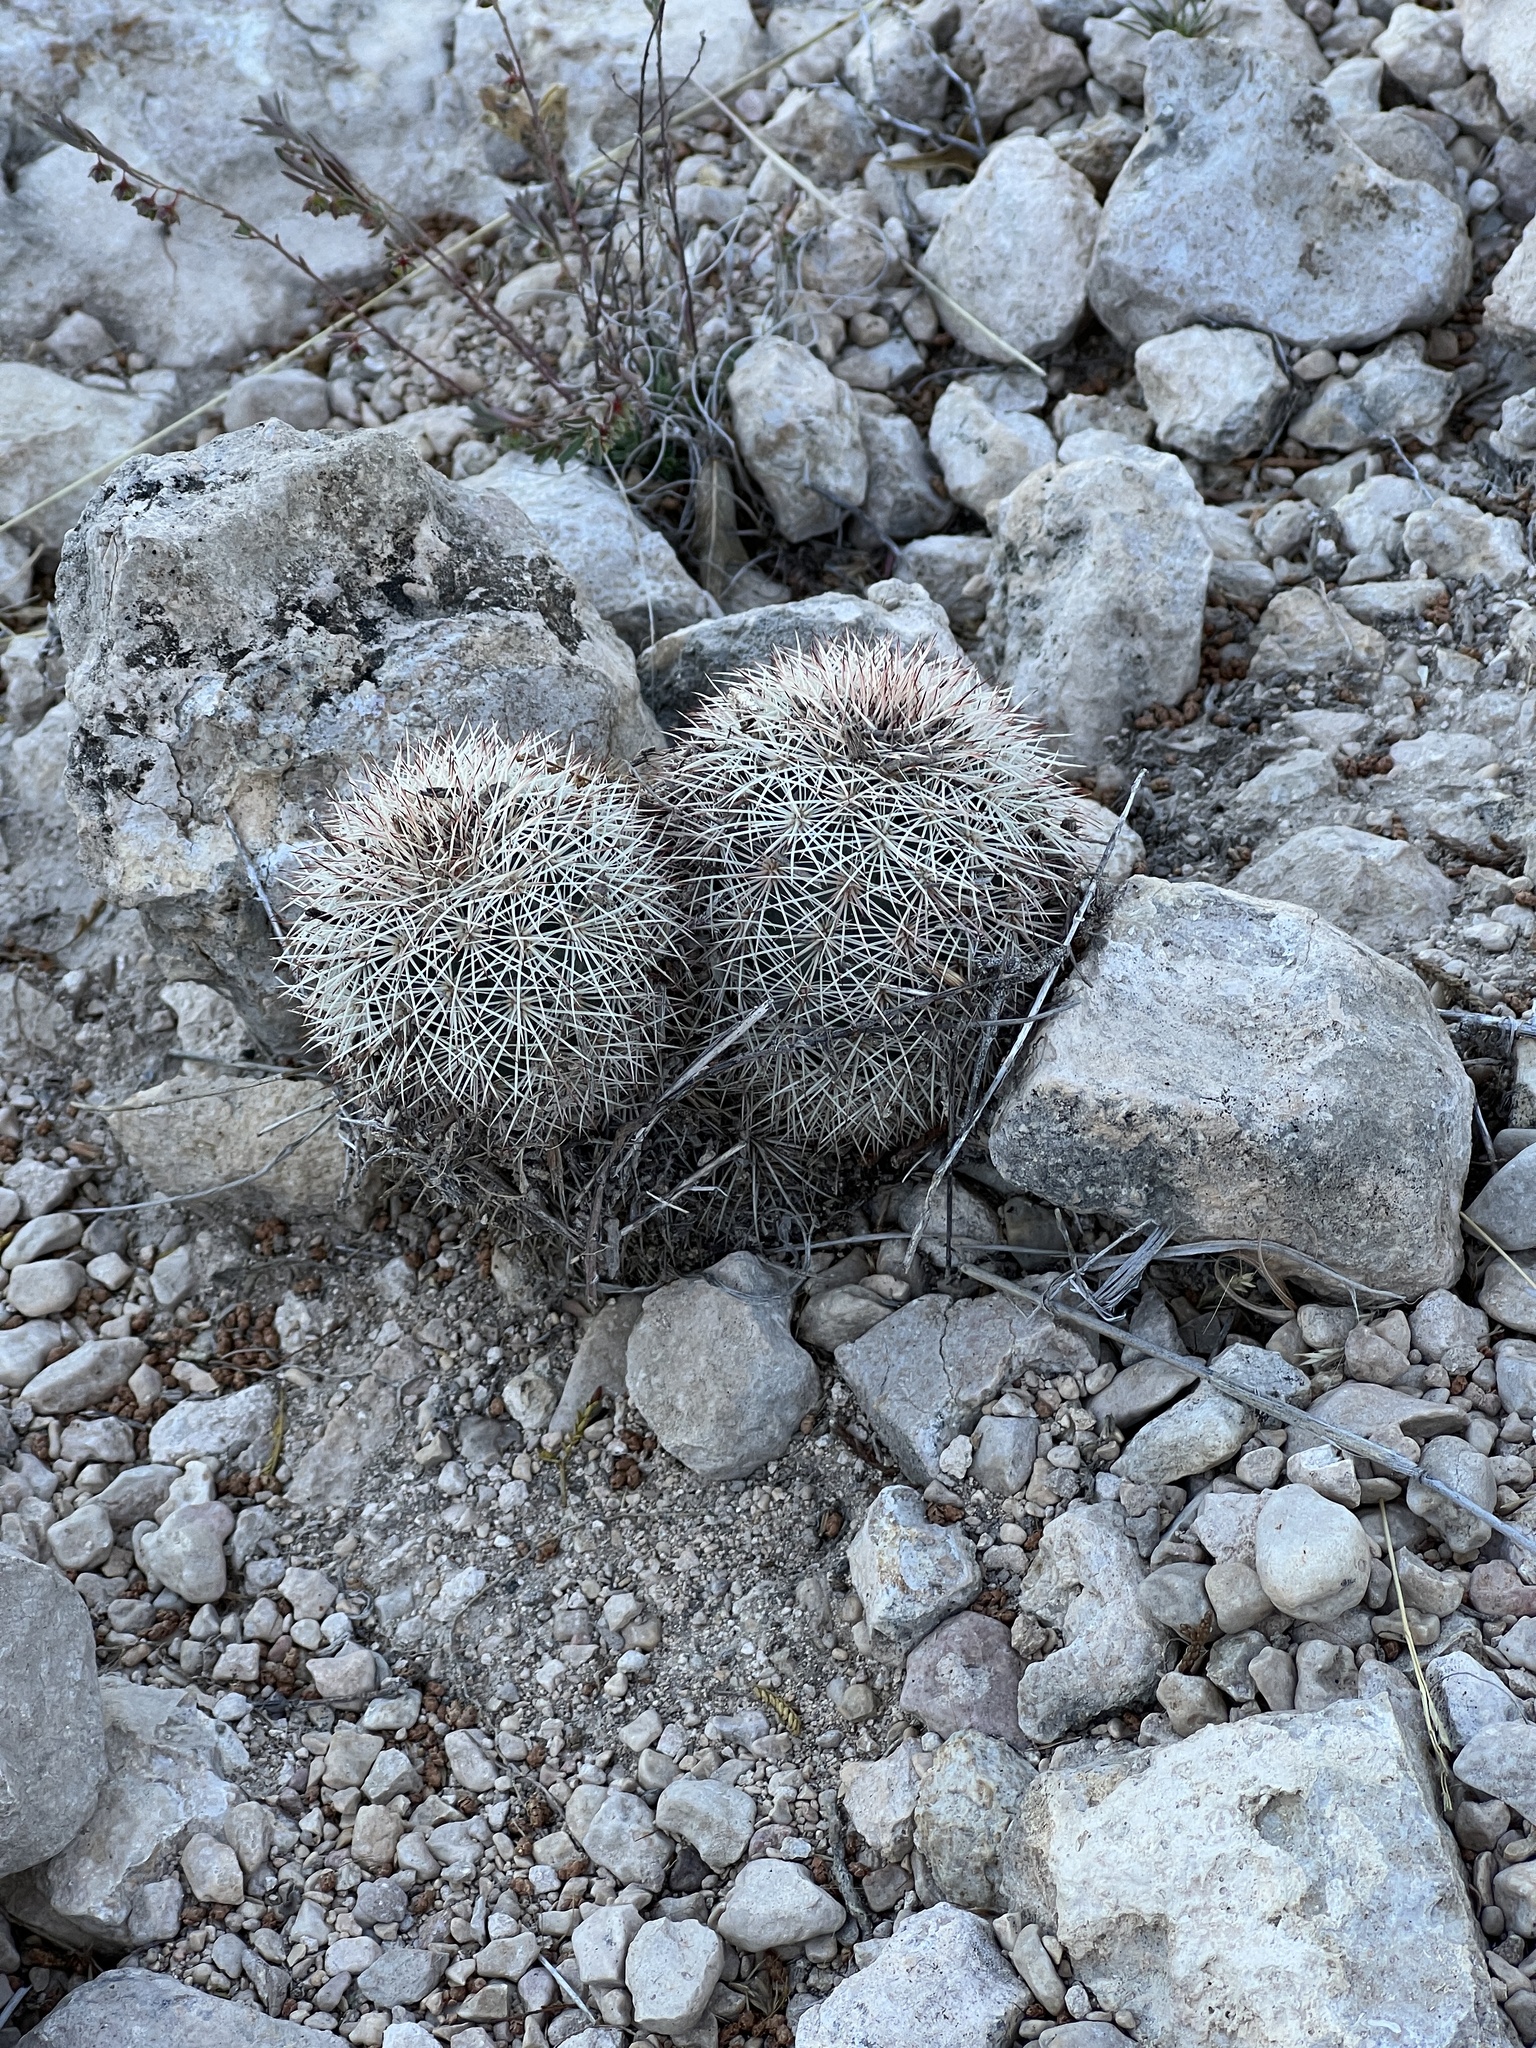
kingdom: Plantae
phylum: Tracheophyta
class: Magnoliopsida
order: Caryophyllales
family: Cactaceae
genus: Echinocereus
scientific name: Echinocereus dasyacanthus
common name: Spiny hedgehog cactus
